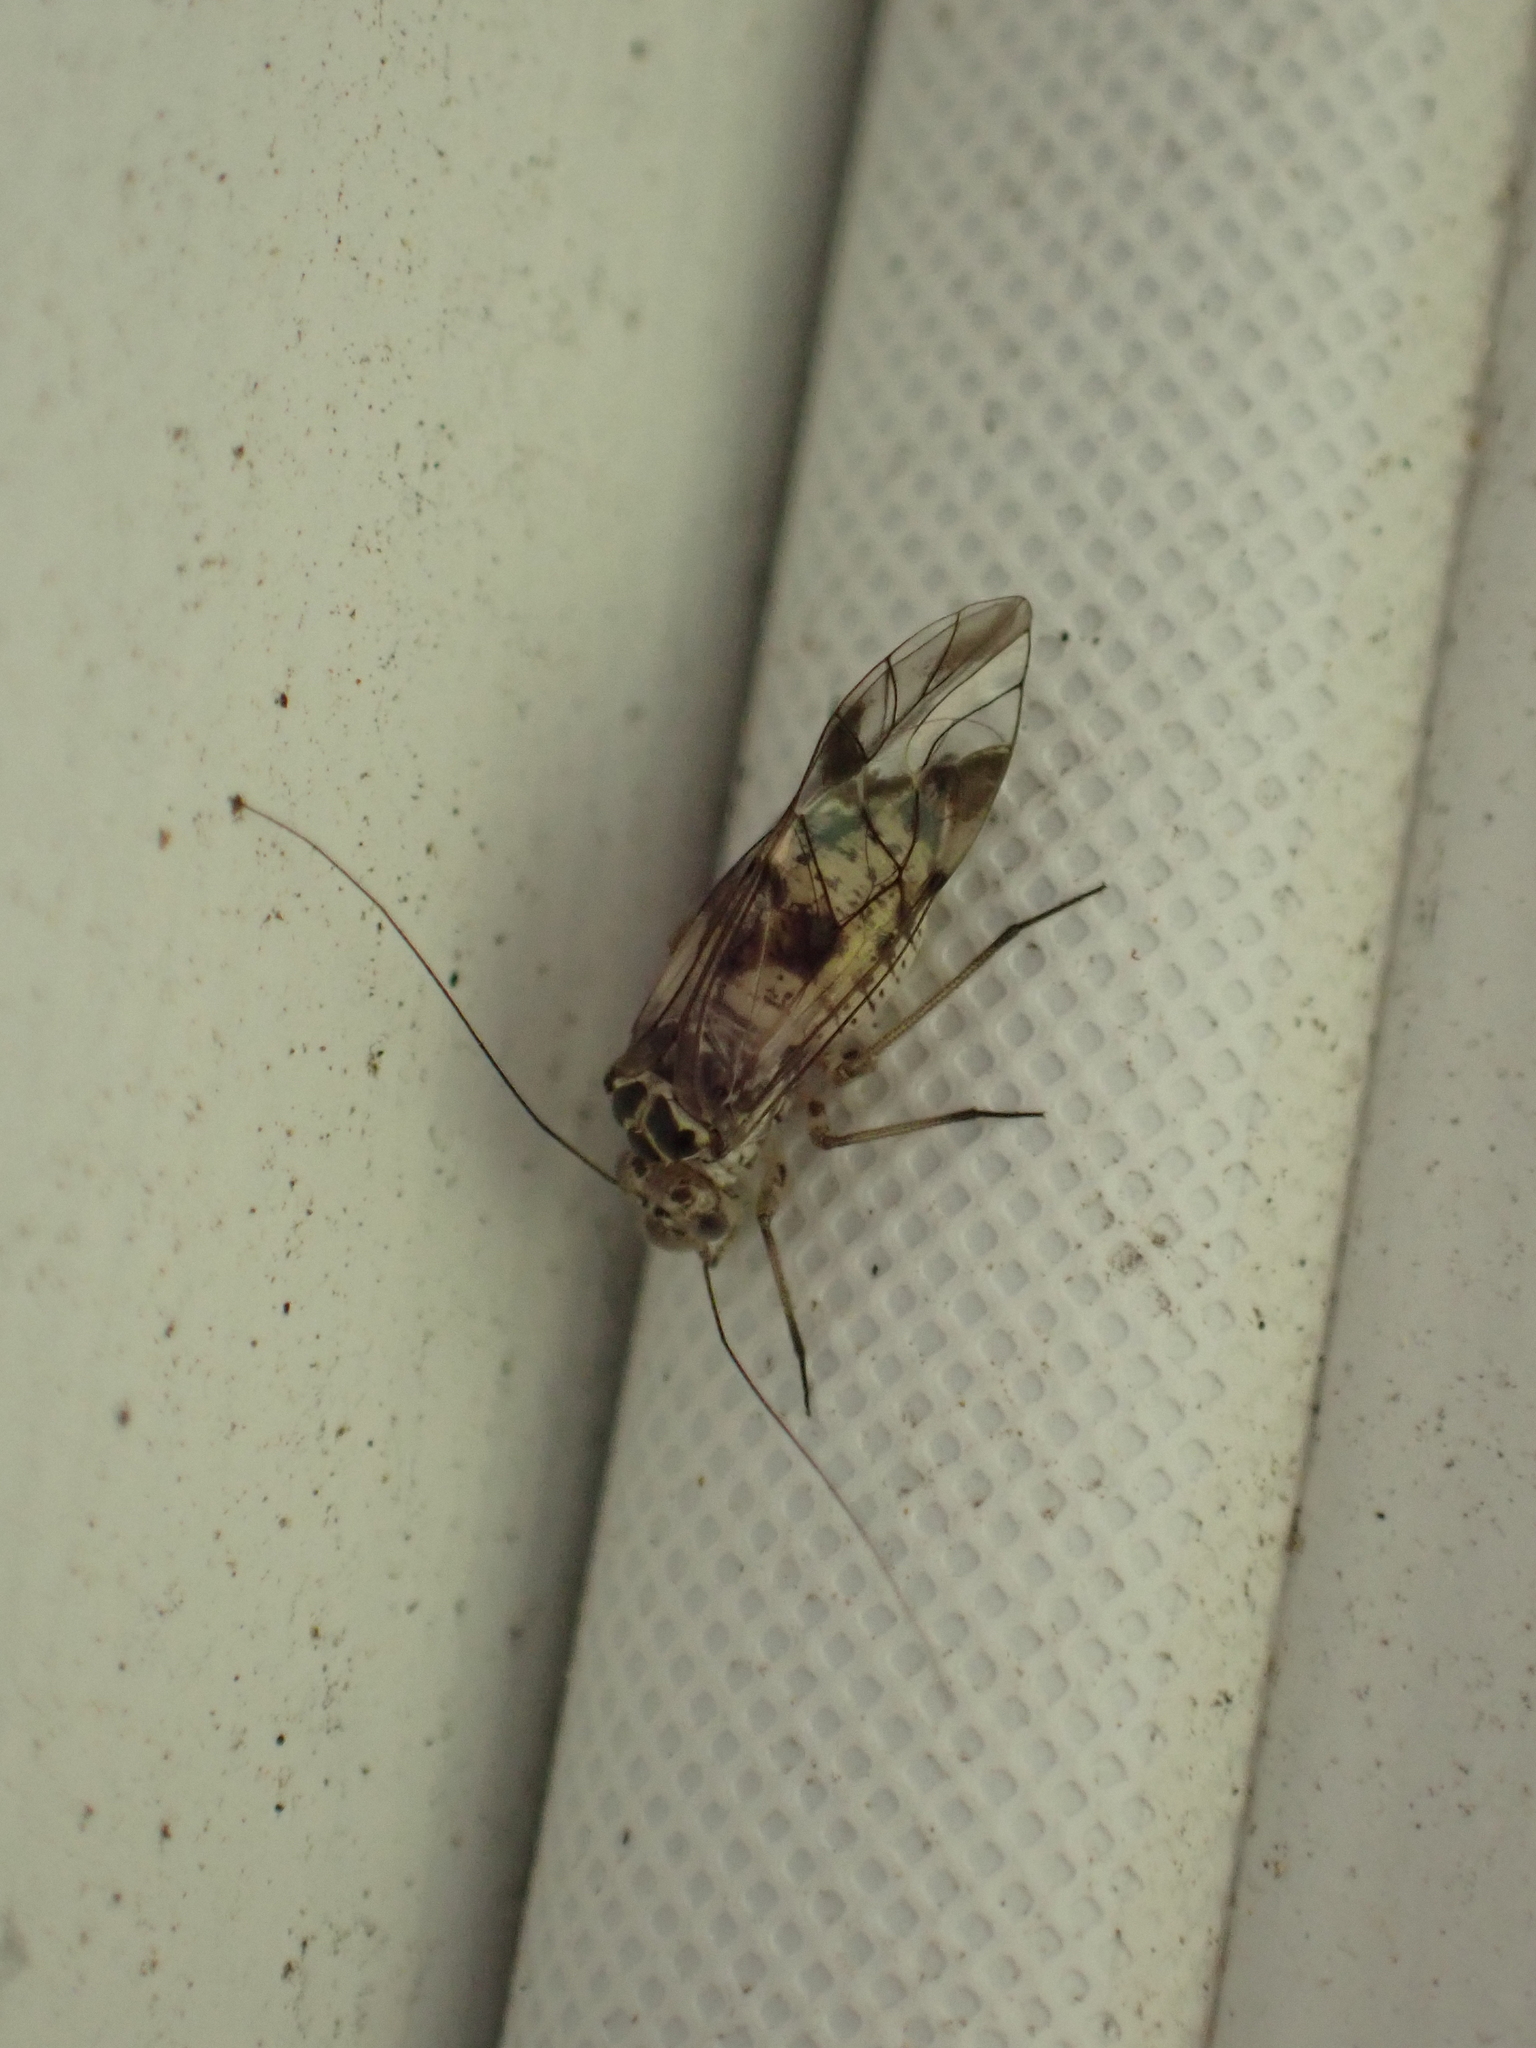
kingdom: Animalia
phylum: Arthropoda
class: Insecta
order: Psocodea
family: Psocidae
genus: Metylophorus
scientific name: Metylophorus novaescotiae
